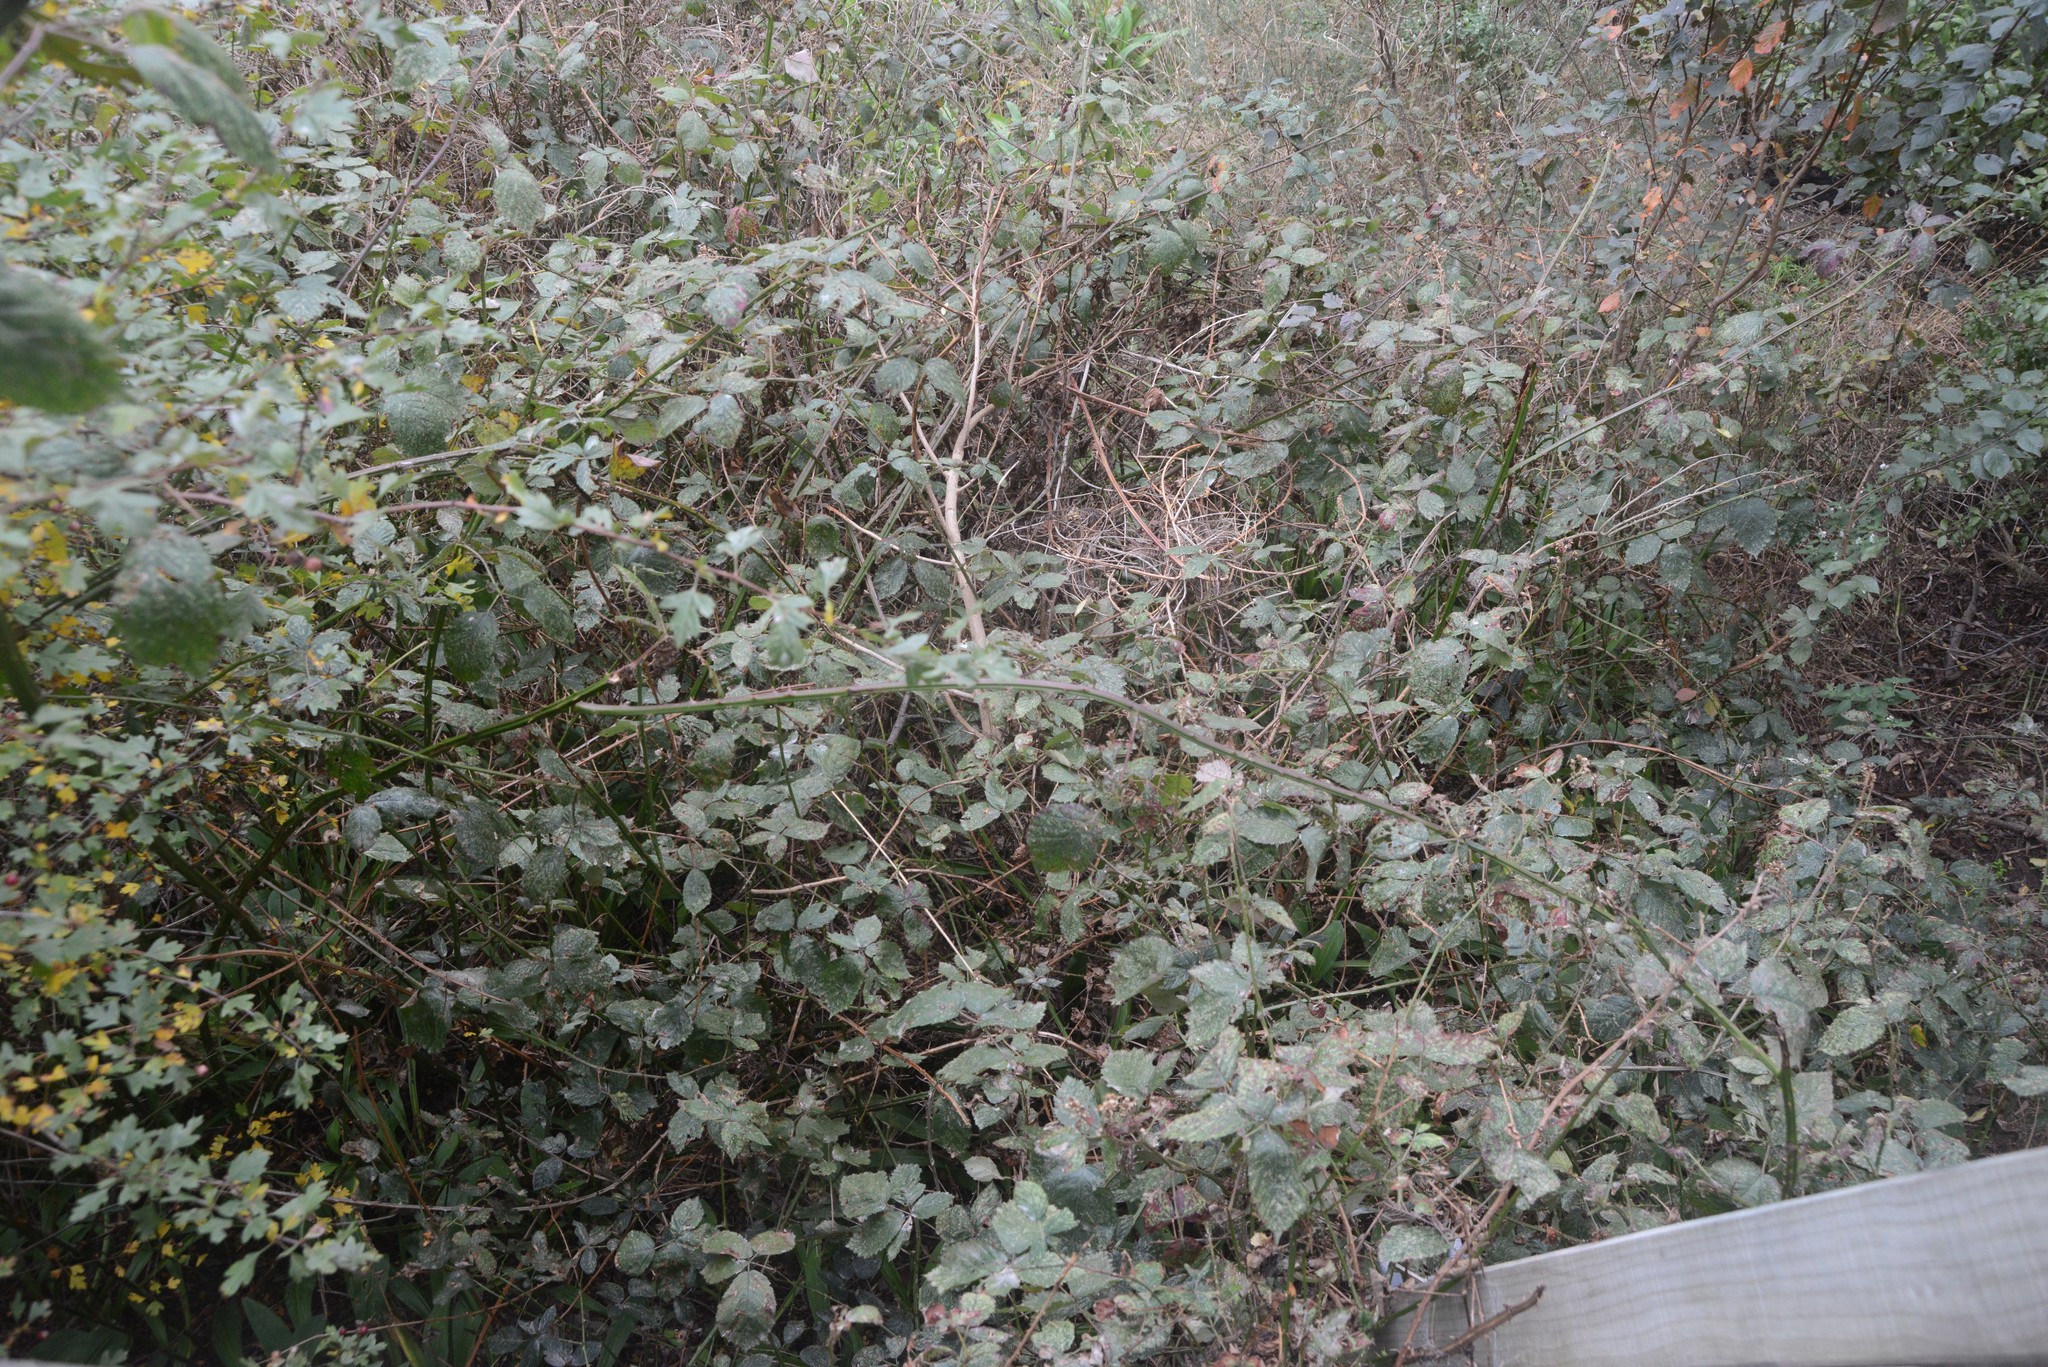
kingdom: Plantae
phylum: Tracheophyta
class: Magnoliopsida
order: Rosales
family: Rosaceae
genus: Rubus
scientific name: Rubus
